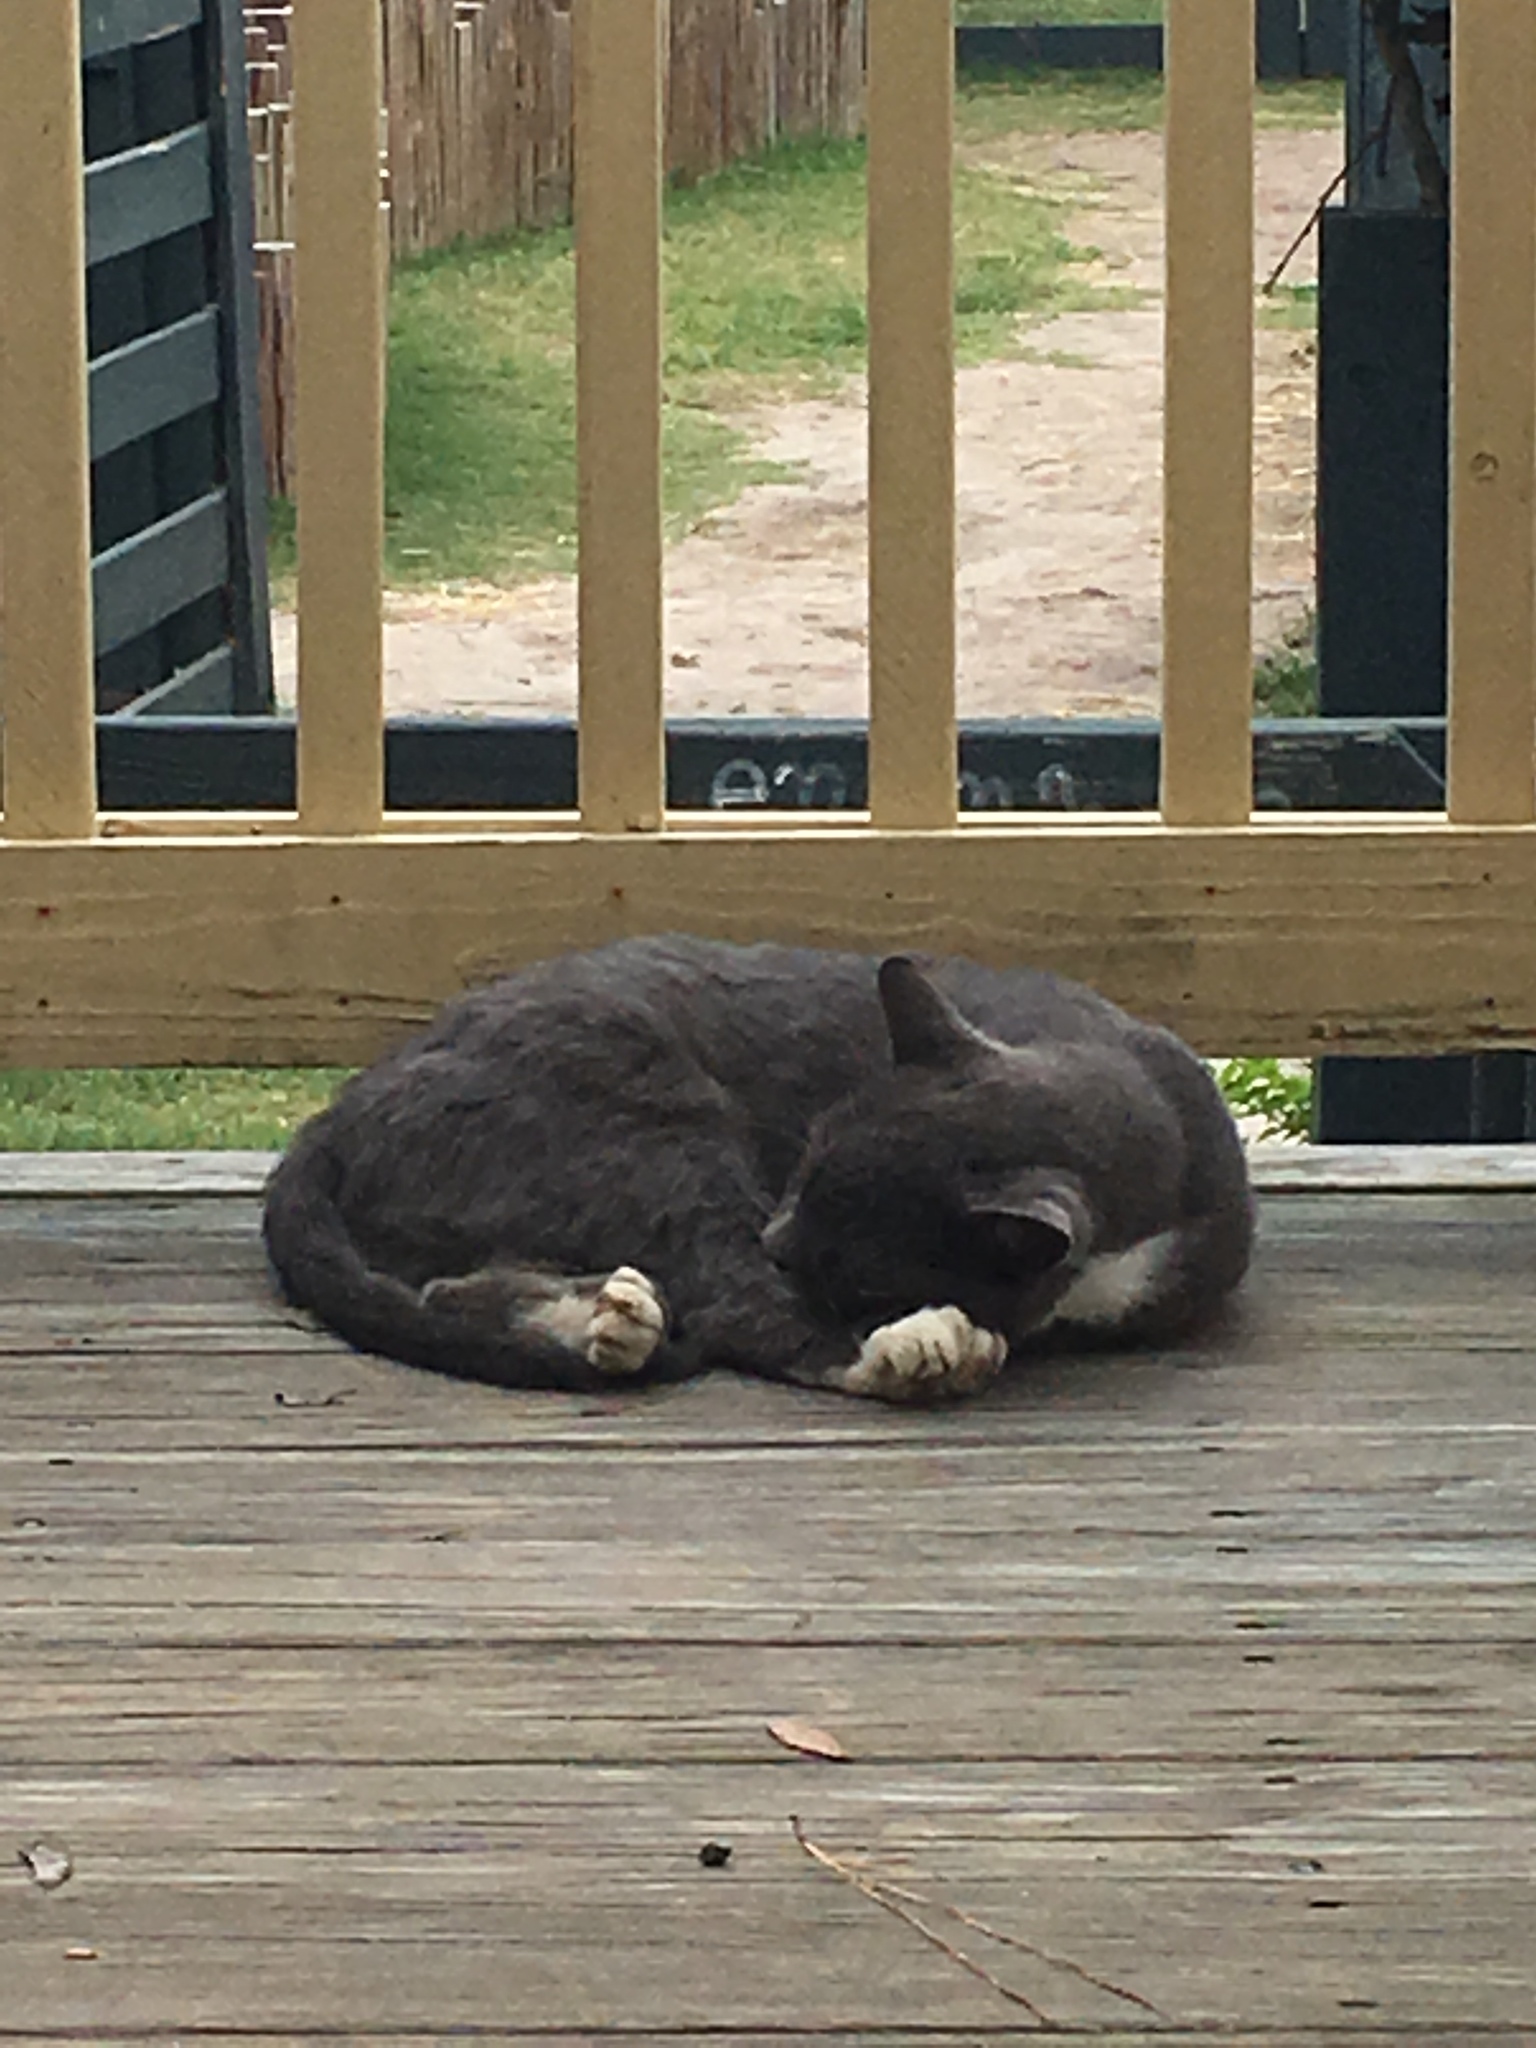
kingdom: Animalia
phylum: Chordata
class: Mammalia
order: Carnivora
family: Felidae
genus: Felis
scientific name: Felis catus
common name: Domestic cat
